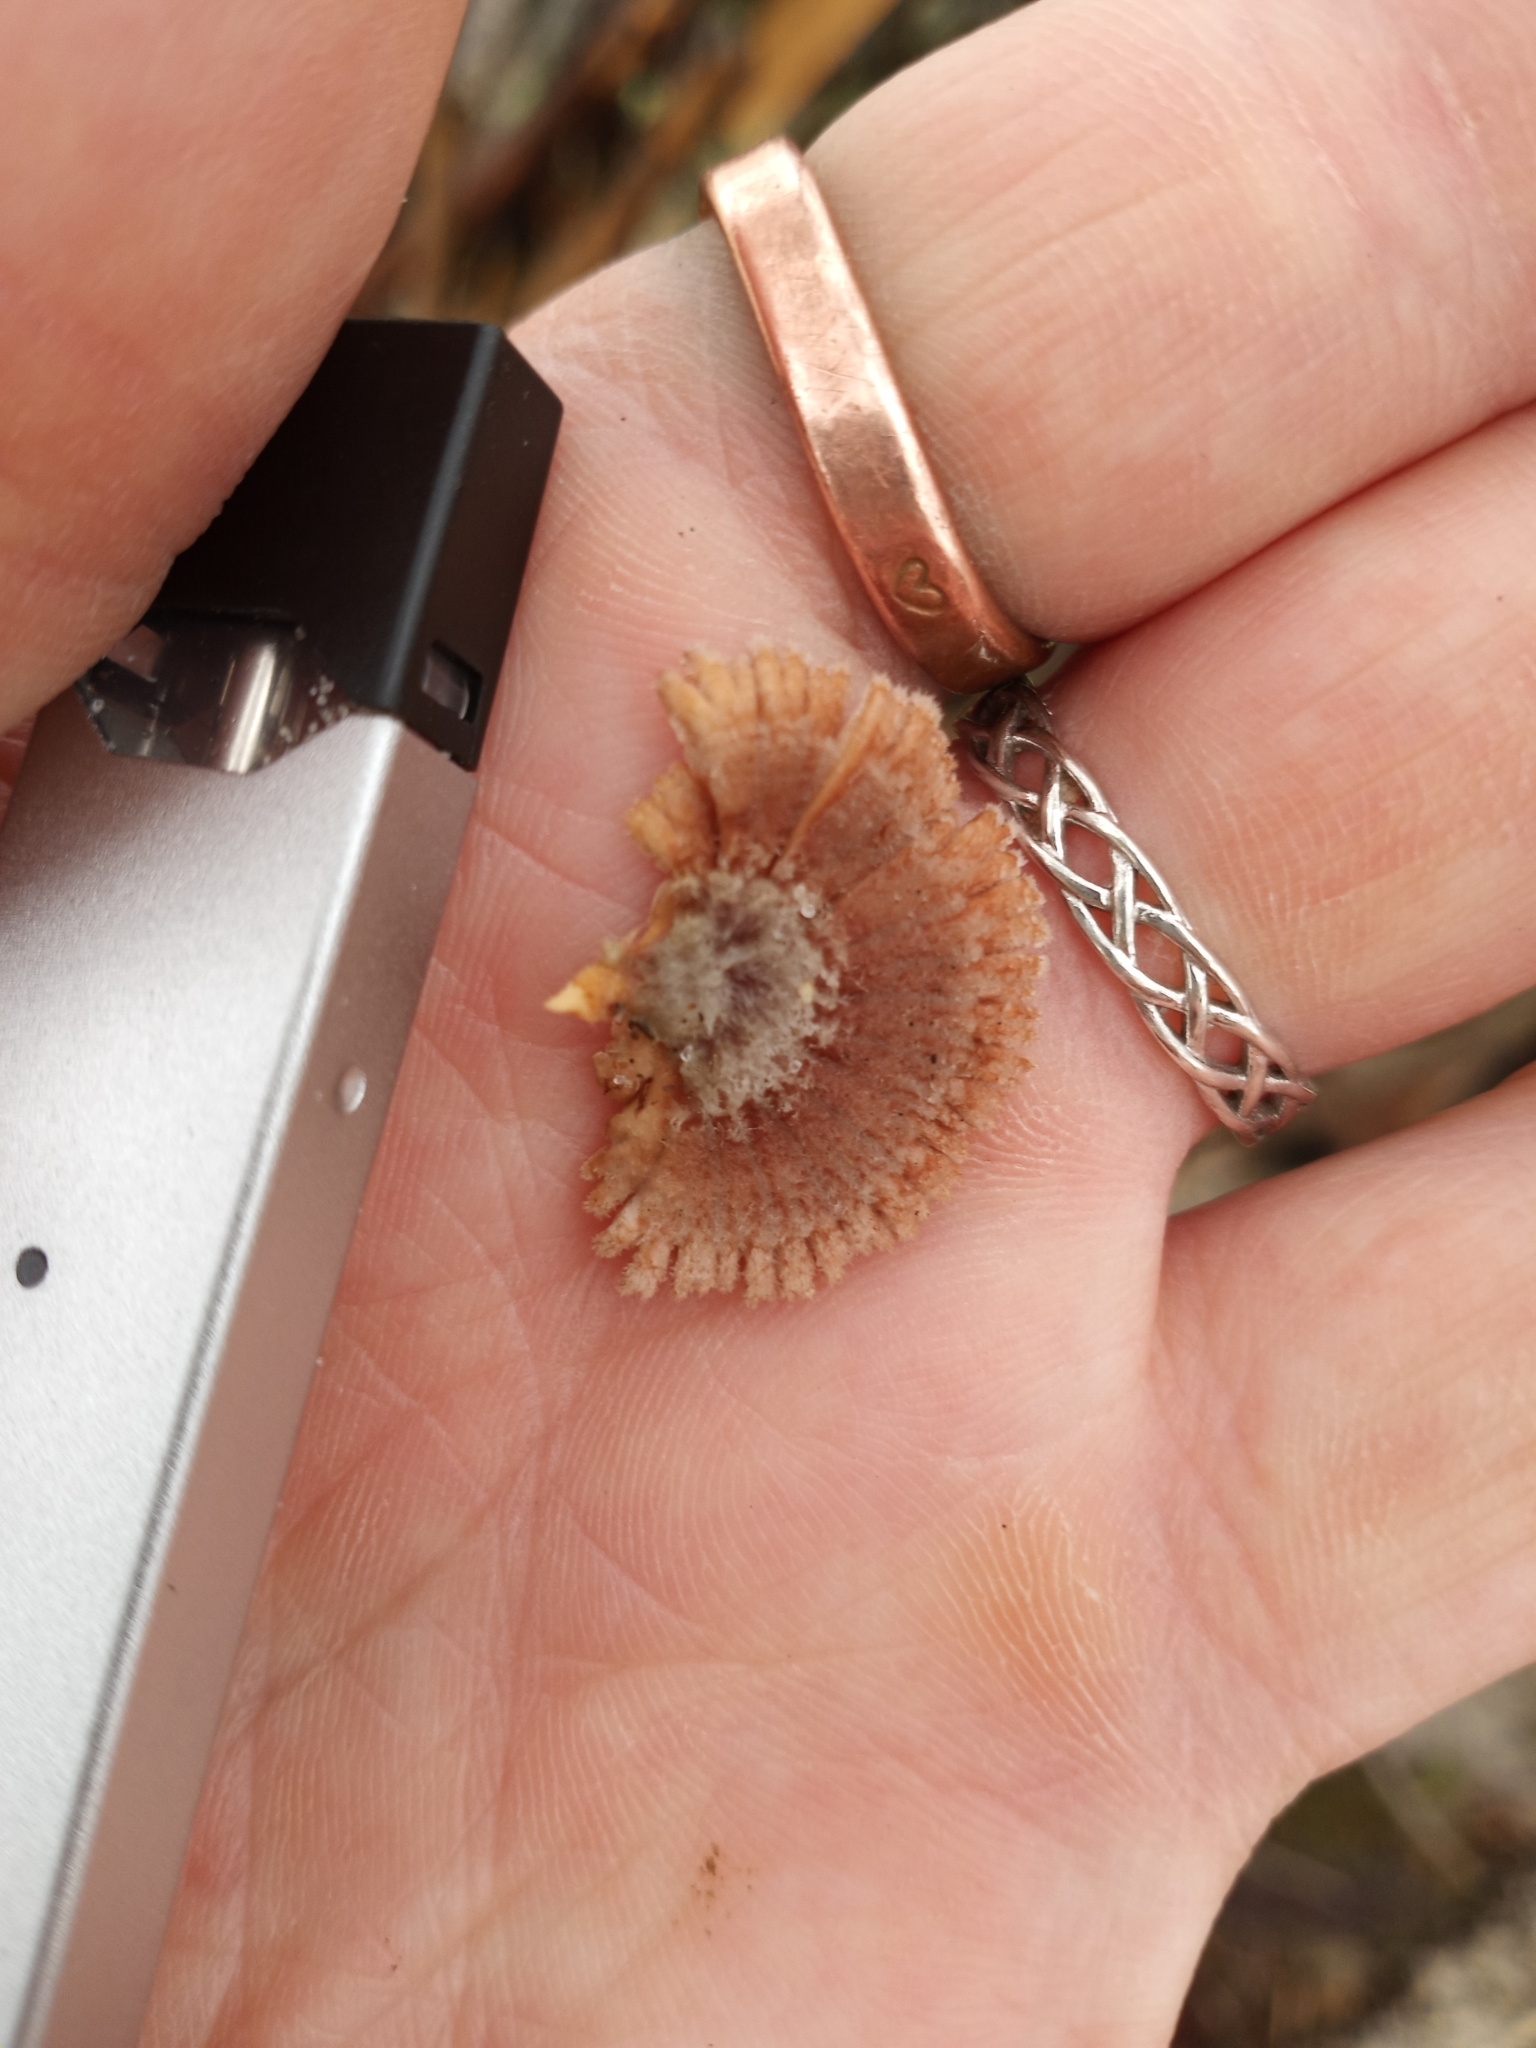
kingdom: Fungi
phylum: Basidiomycota
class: Agaricomycetes
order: Agaricales
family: Schizophyllaceae
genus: Schizophyllum
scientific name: Schizophyllum commune
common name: Common porecrust
